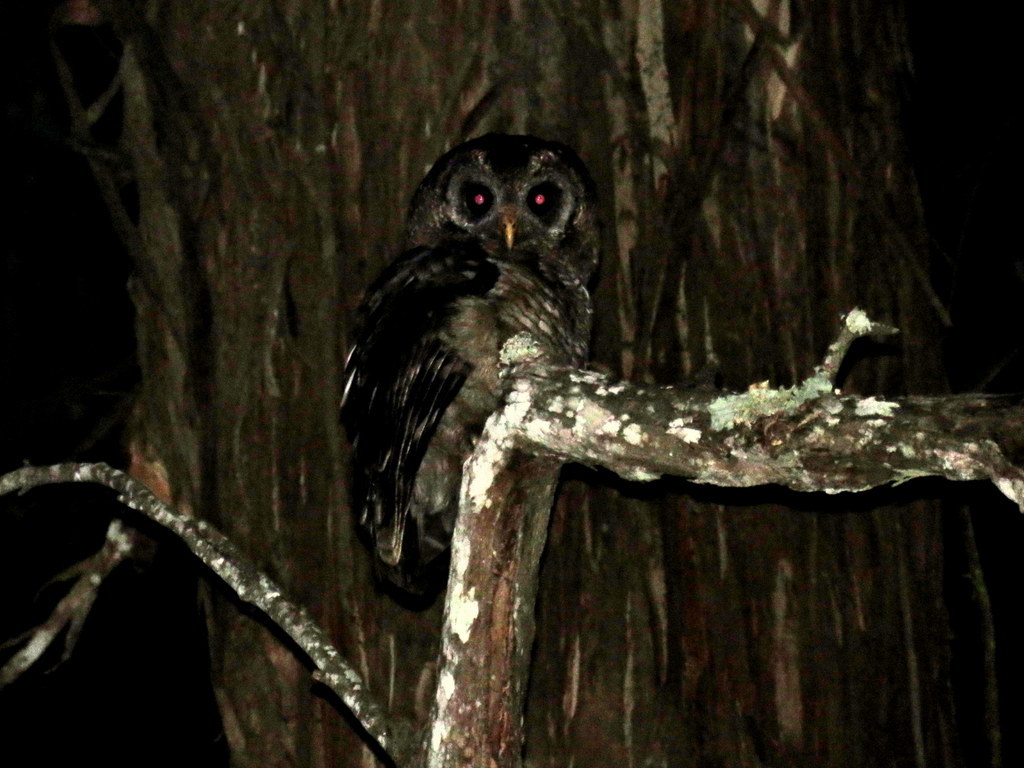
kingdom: Animalia
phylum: Chordata
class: Aves
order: Strigiformes
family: Strigidae
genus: Strix
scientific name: Strix woodfordii
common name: African wood owl
